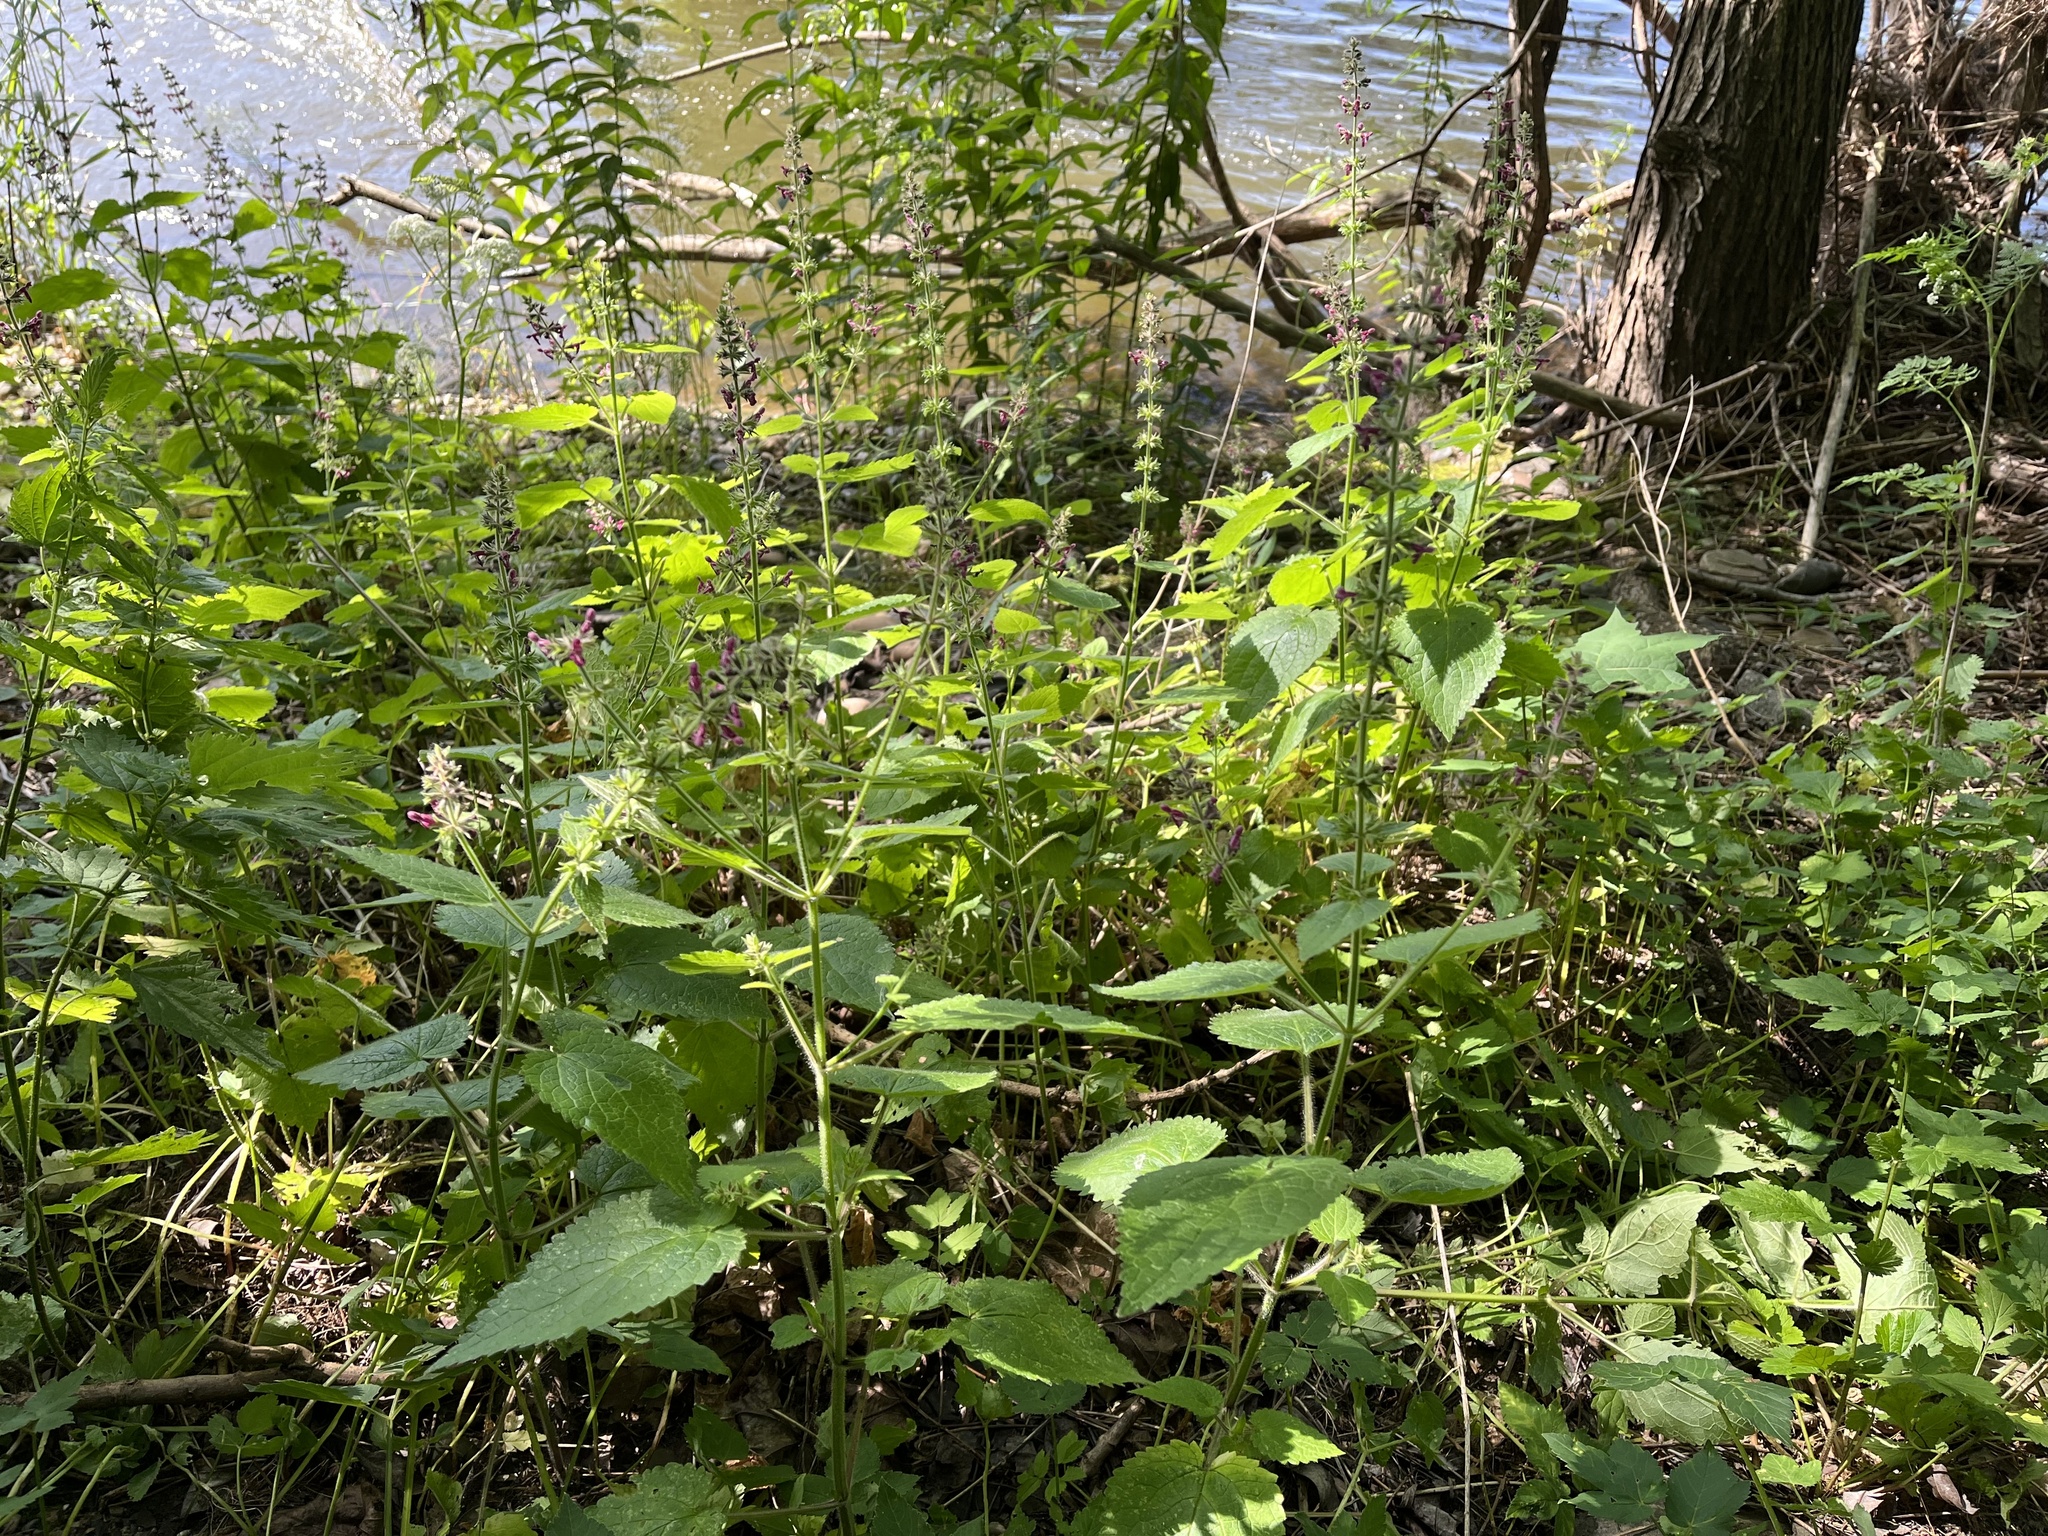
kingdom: Plantae
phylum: Tracheophyta
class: Magnoliopsida
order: Lamiales
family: Lamiaceae
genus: Stachys
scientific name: Stachys sylvatica
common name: Hedge woundwort
